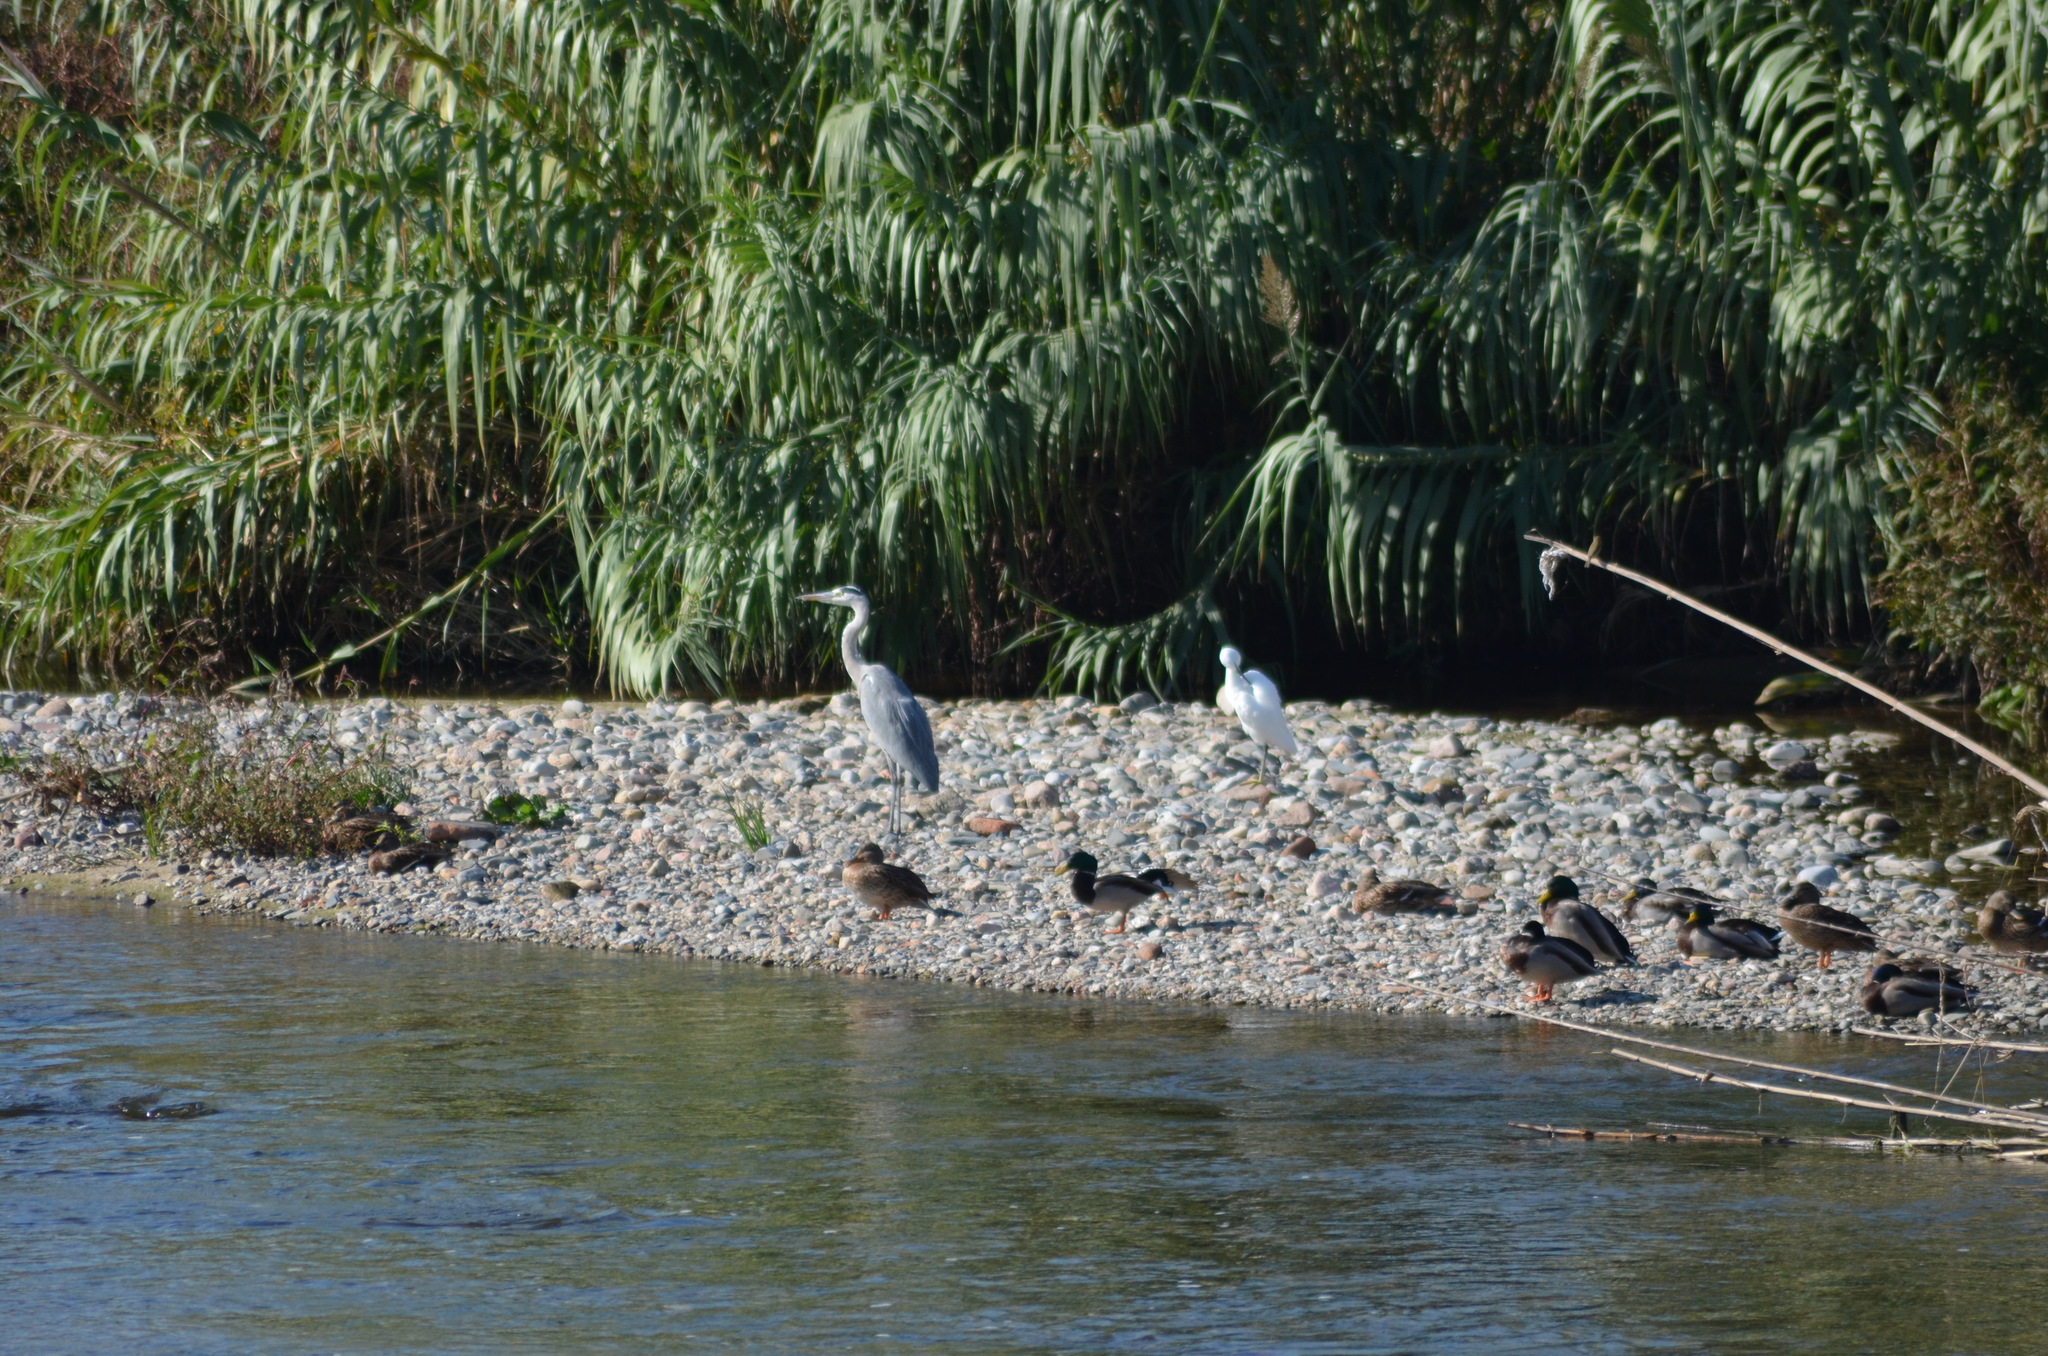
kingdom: Animalia
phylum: Chordata
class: Aves
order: Pelecaniformes
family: Ardeidae
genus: Ardea
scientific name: Ardea cinerea
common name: Grey heron
